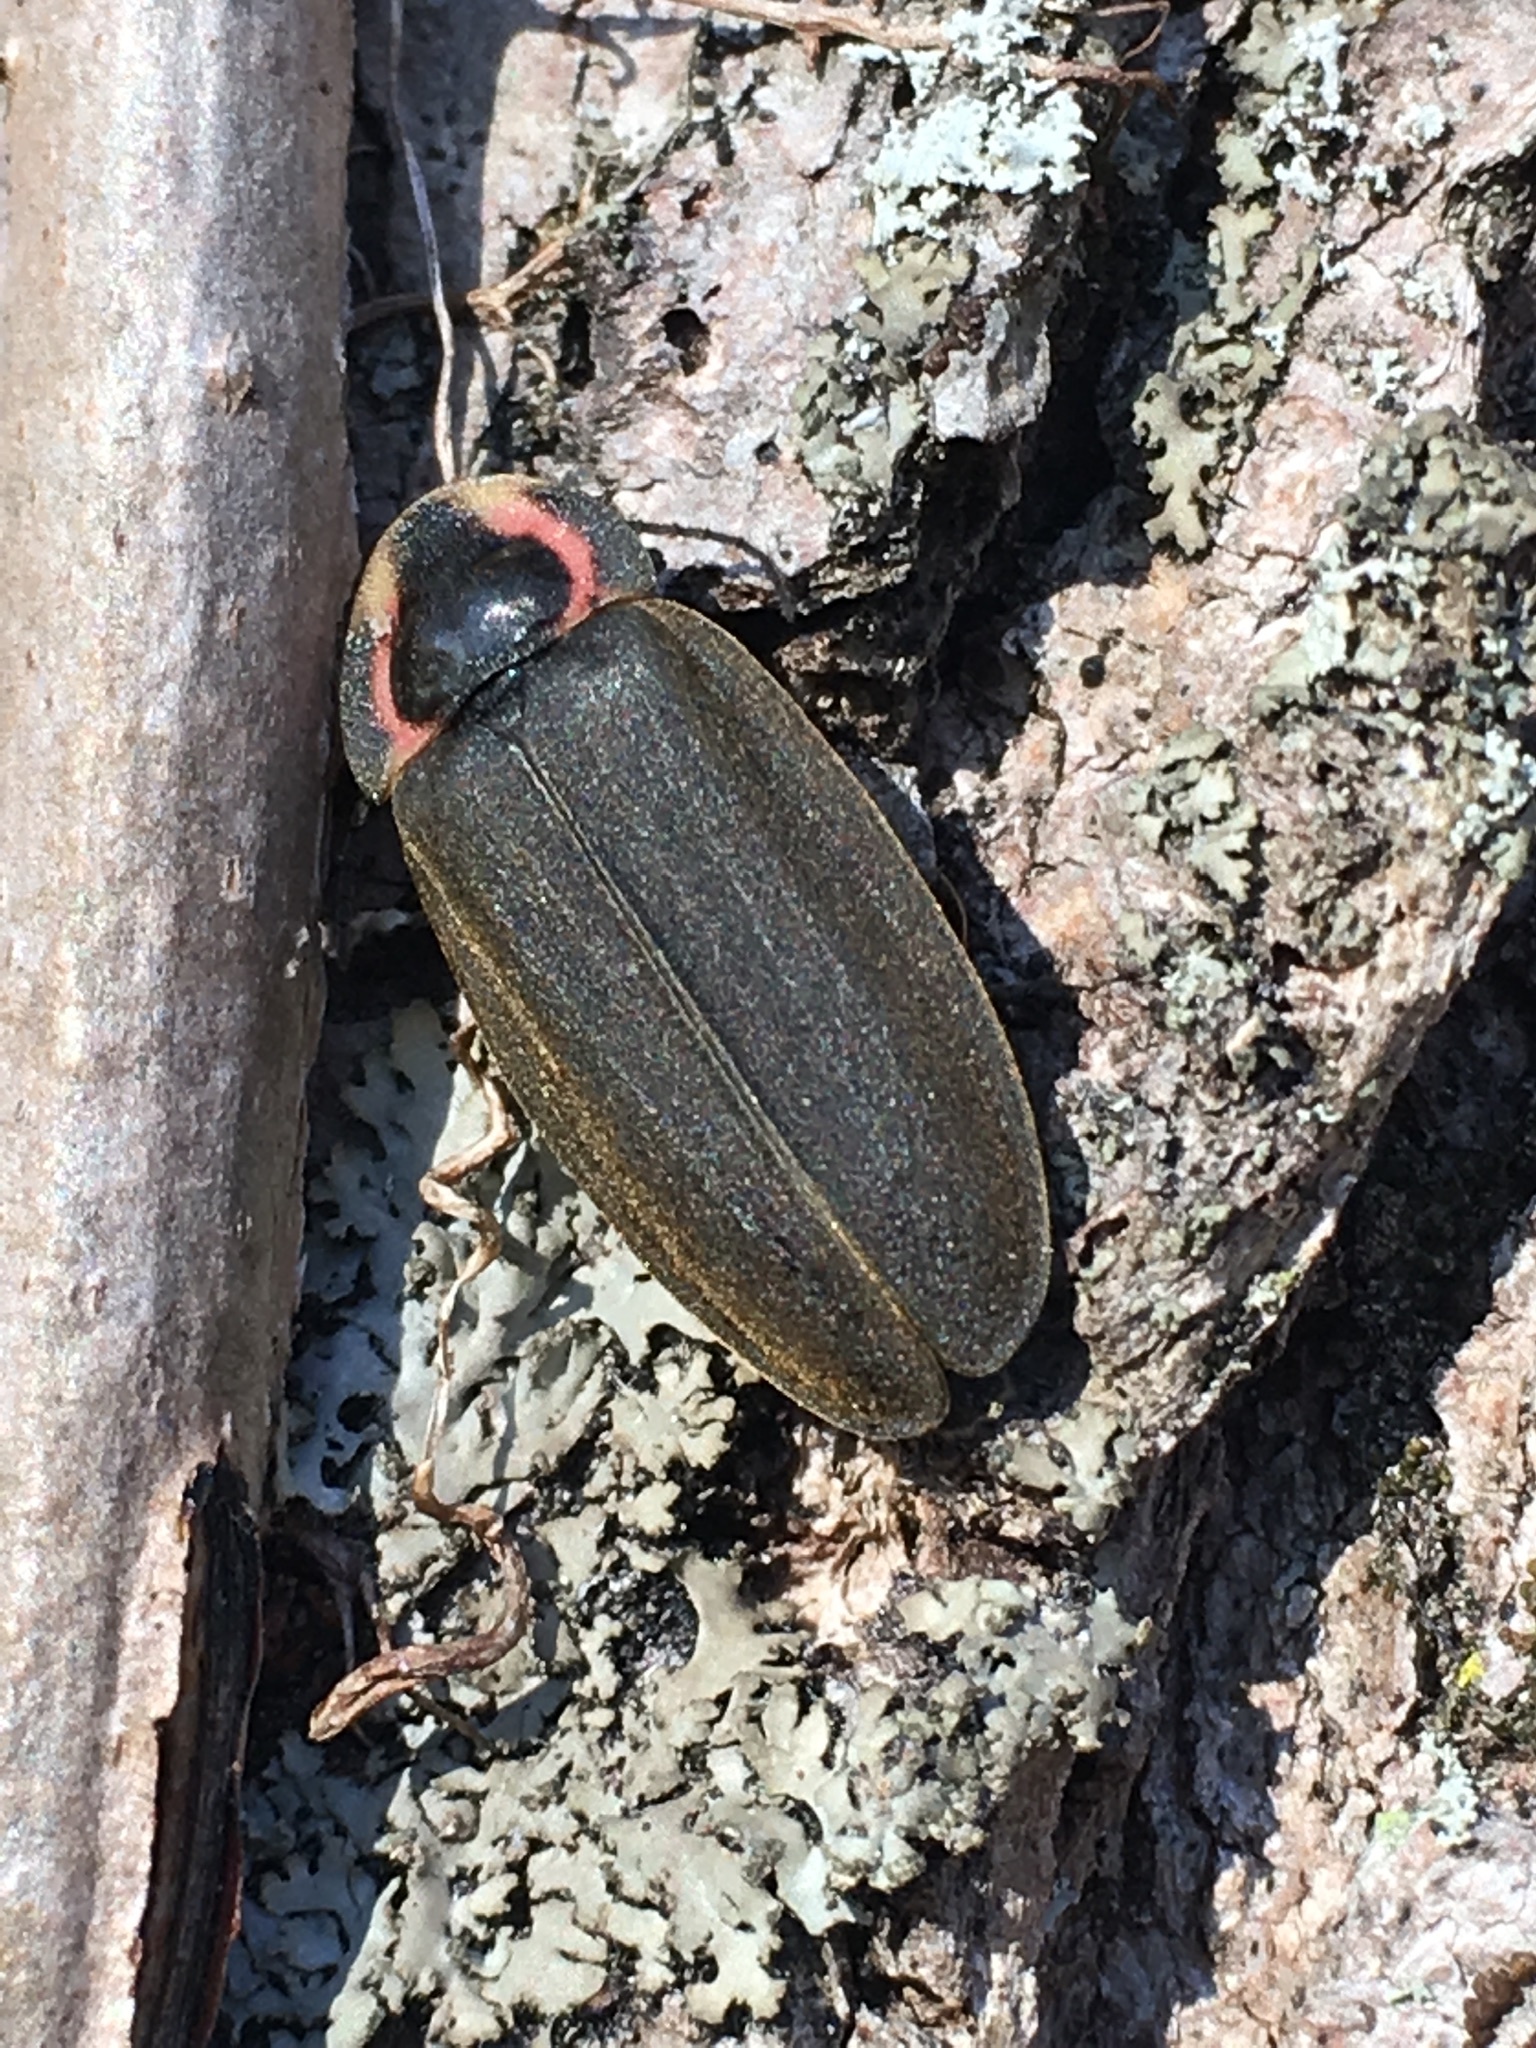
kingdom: Animalia
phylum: Arthropoda
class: Insecta
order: Coleoptera
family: Lampyridae
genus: Photinus
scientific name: Photinus corrusca
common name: Winter firefly
